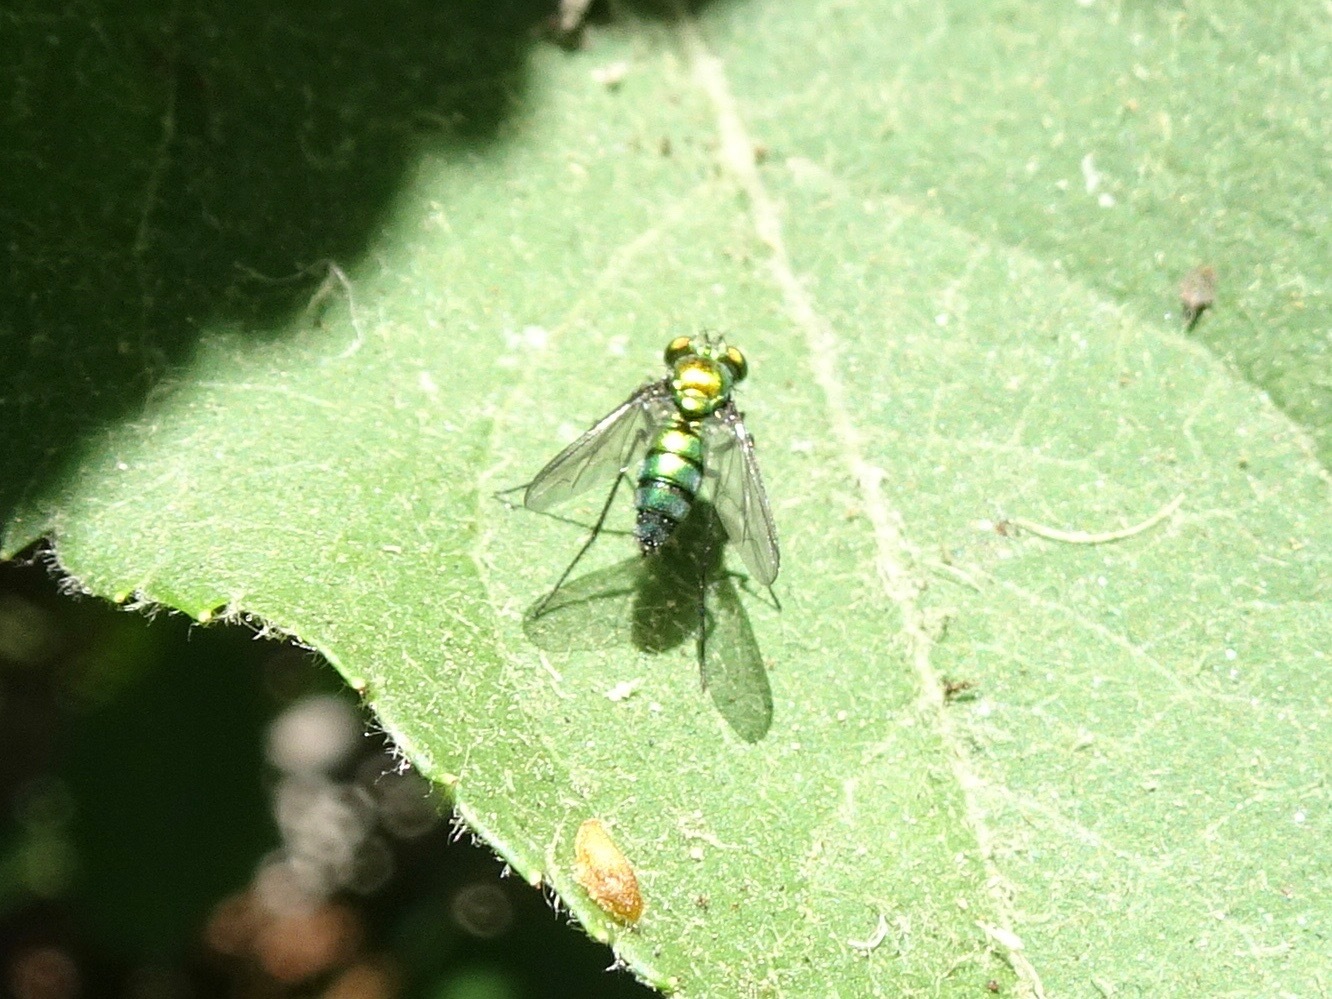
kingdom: Animalia
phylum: Arthropoda
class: Insecta
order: Diptera
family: Dolichopodidae
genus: Condylostylus
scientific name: Condylostylus longicornis
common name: Long-legged fly
